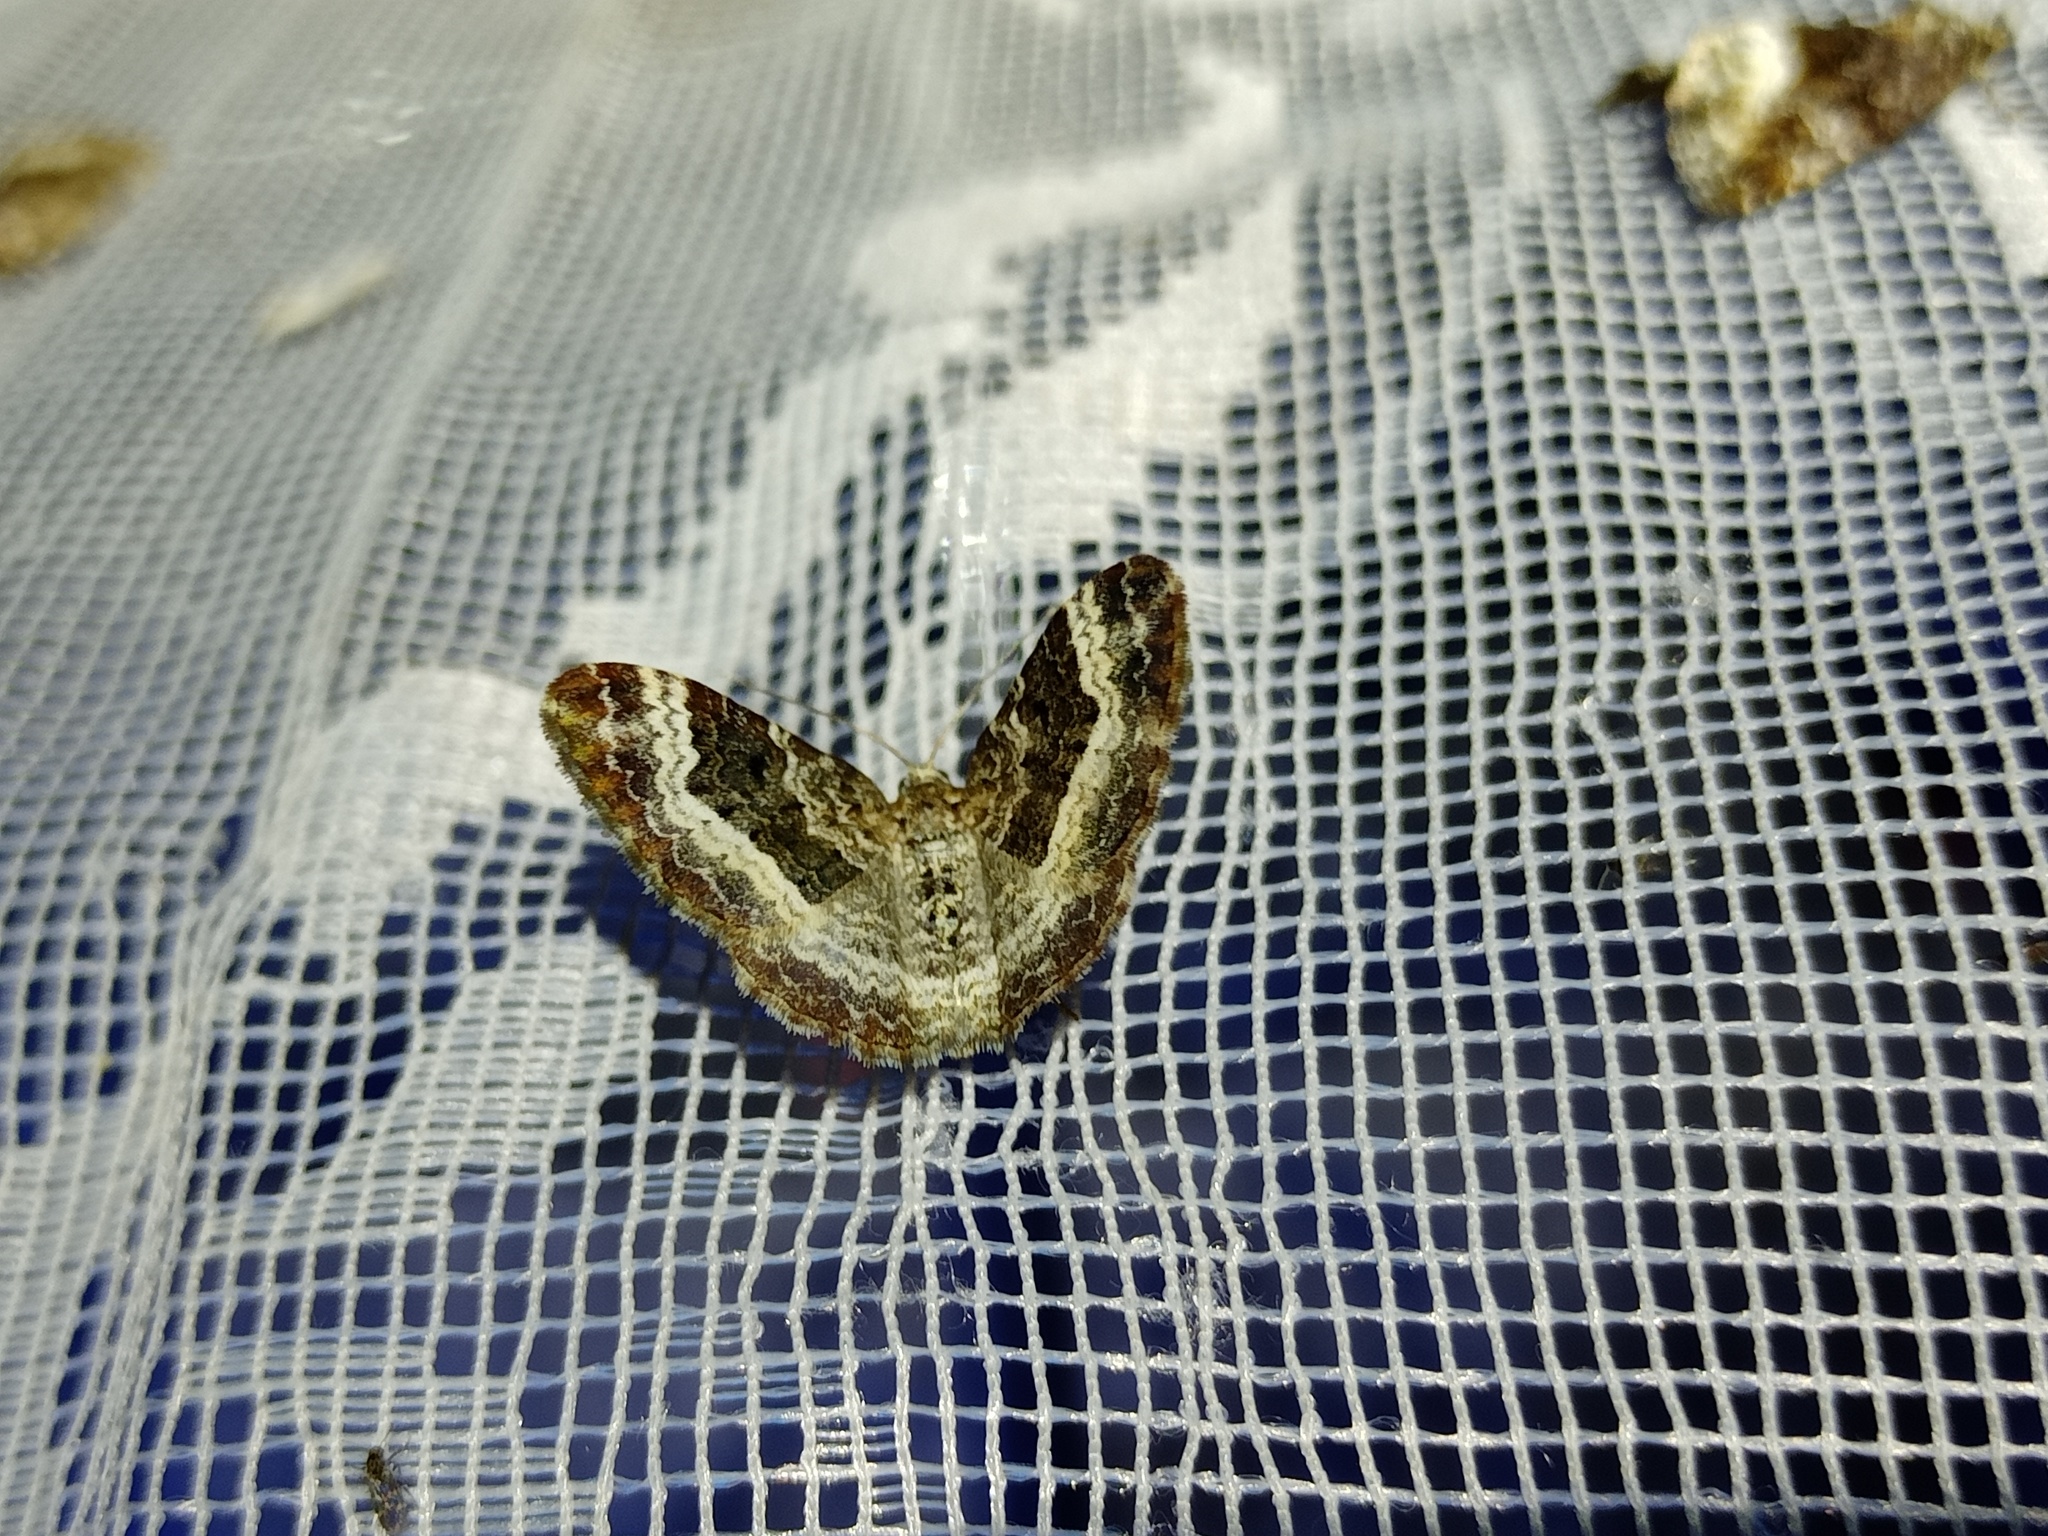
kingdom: Animalia
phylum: Arthropoda
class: Insecta
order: Lepidoptera
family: Geometridae
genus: Epirrhoe
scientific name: Epirrhoe alternata
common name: Common carpet
